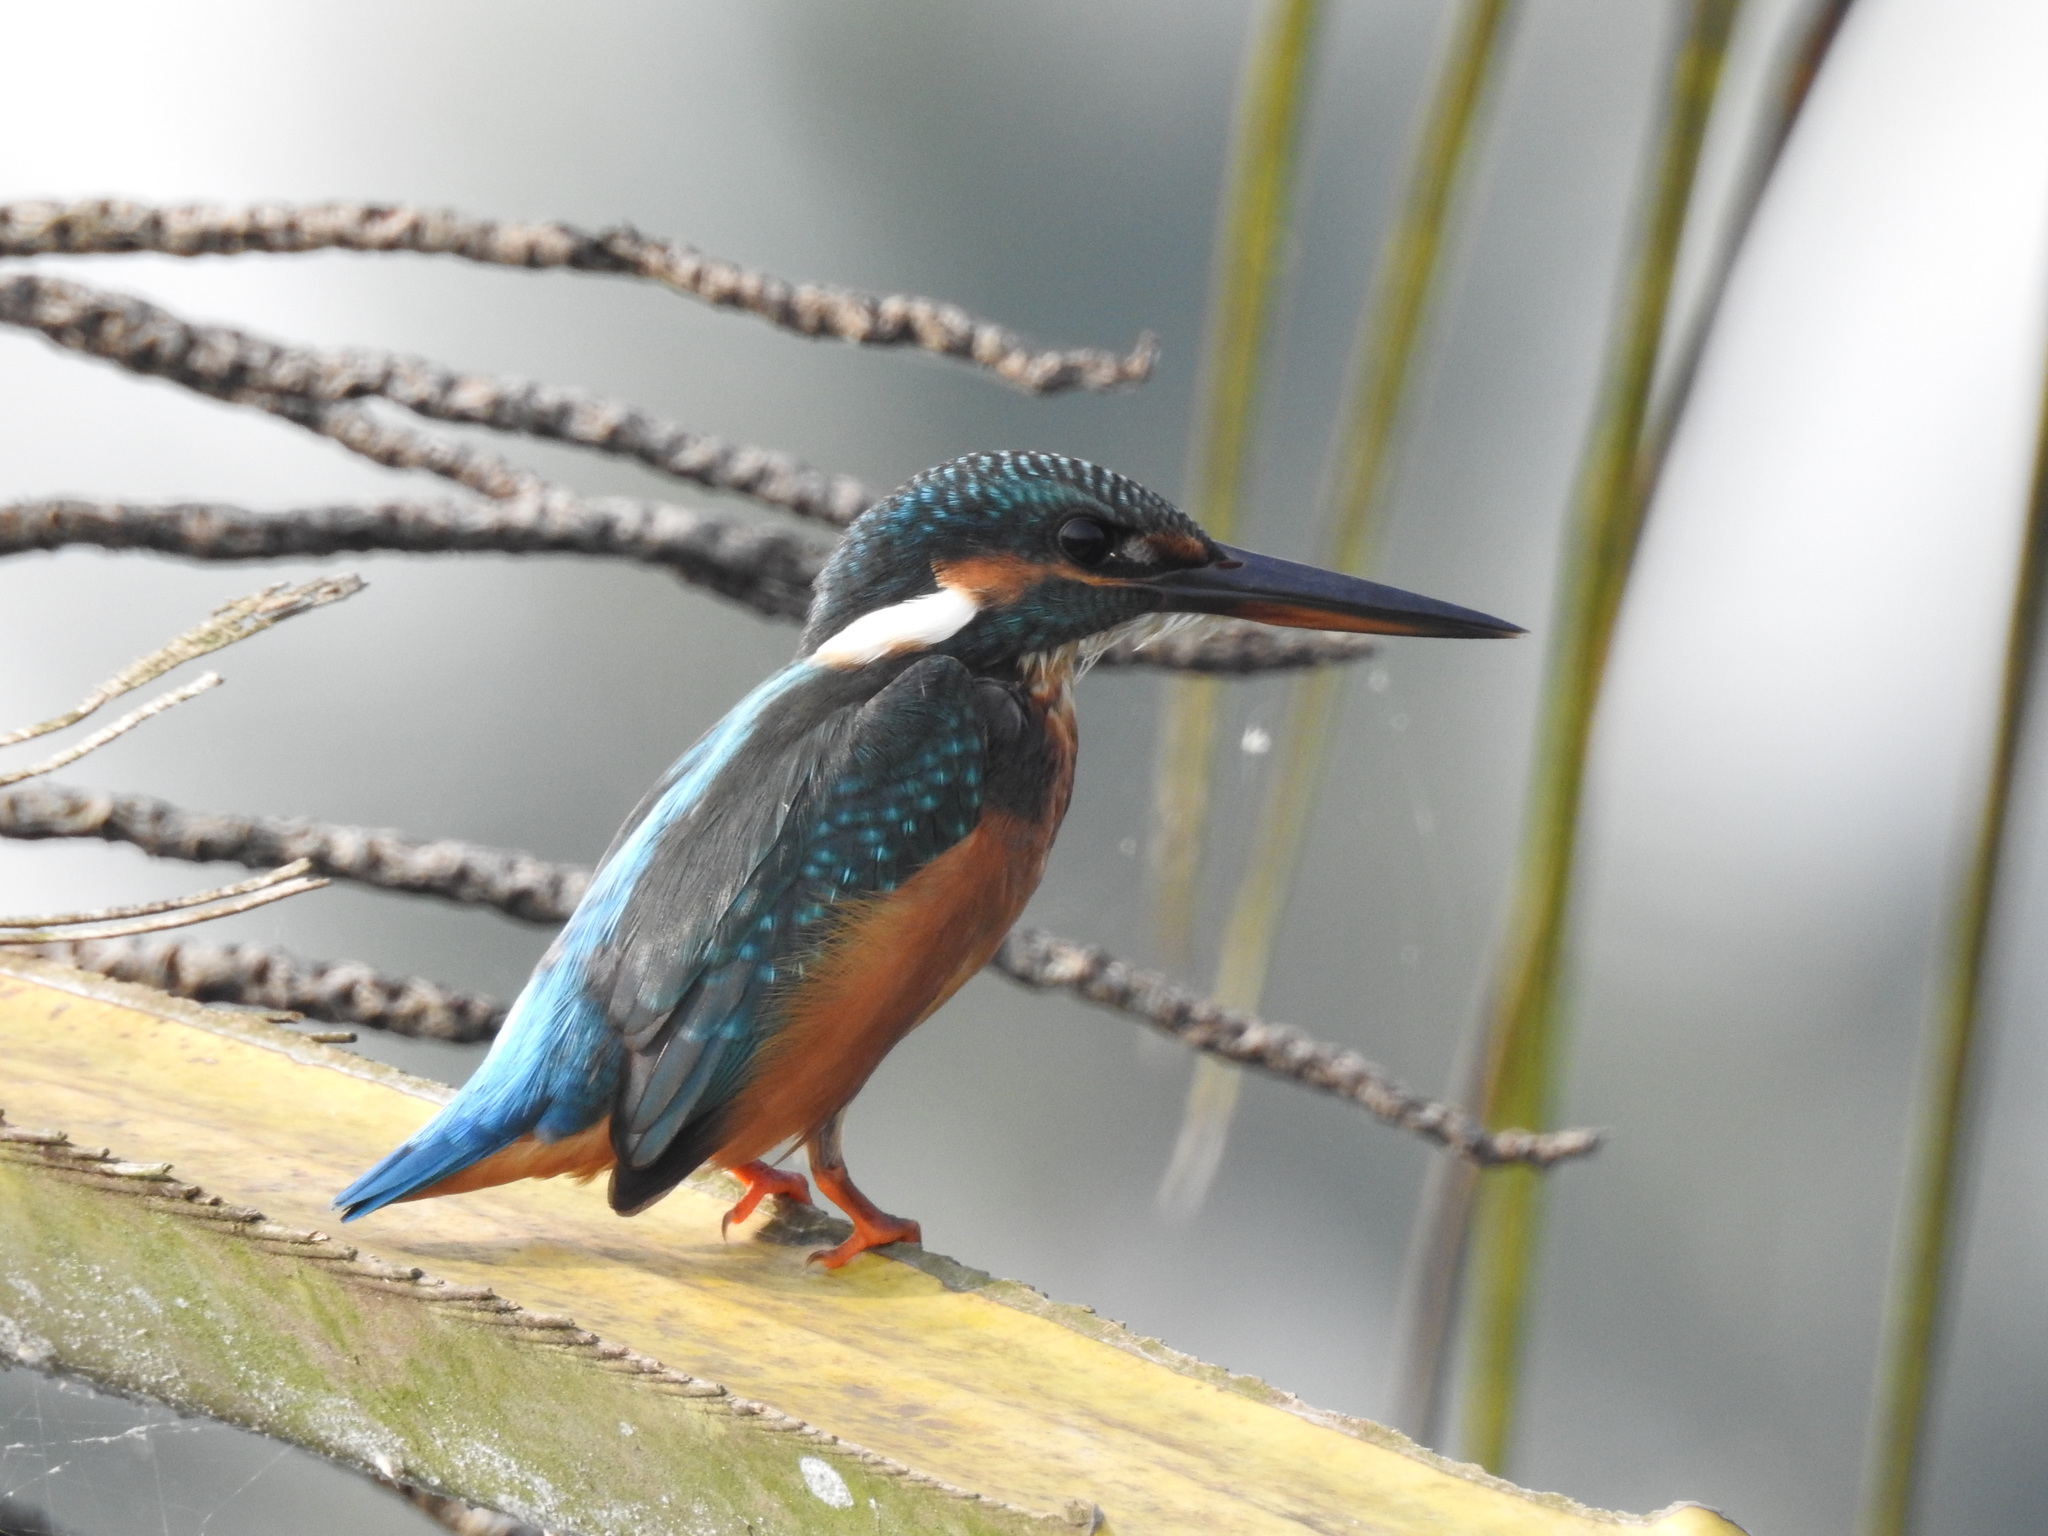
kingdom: Animalia
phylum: Chordata
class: Aves
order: Coraciiformes
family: Alcedinidae
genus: Alcedo
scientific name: Alcedo atthis
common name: Common kingfisher
